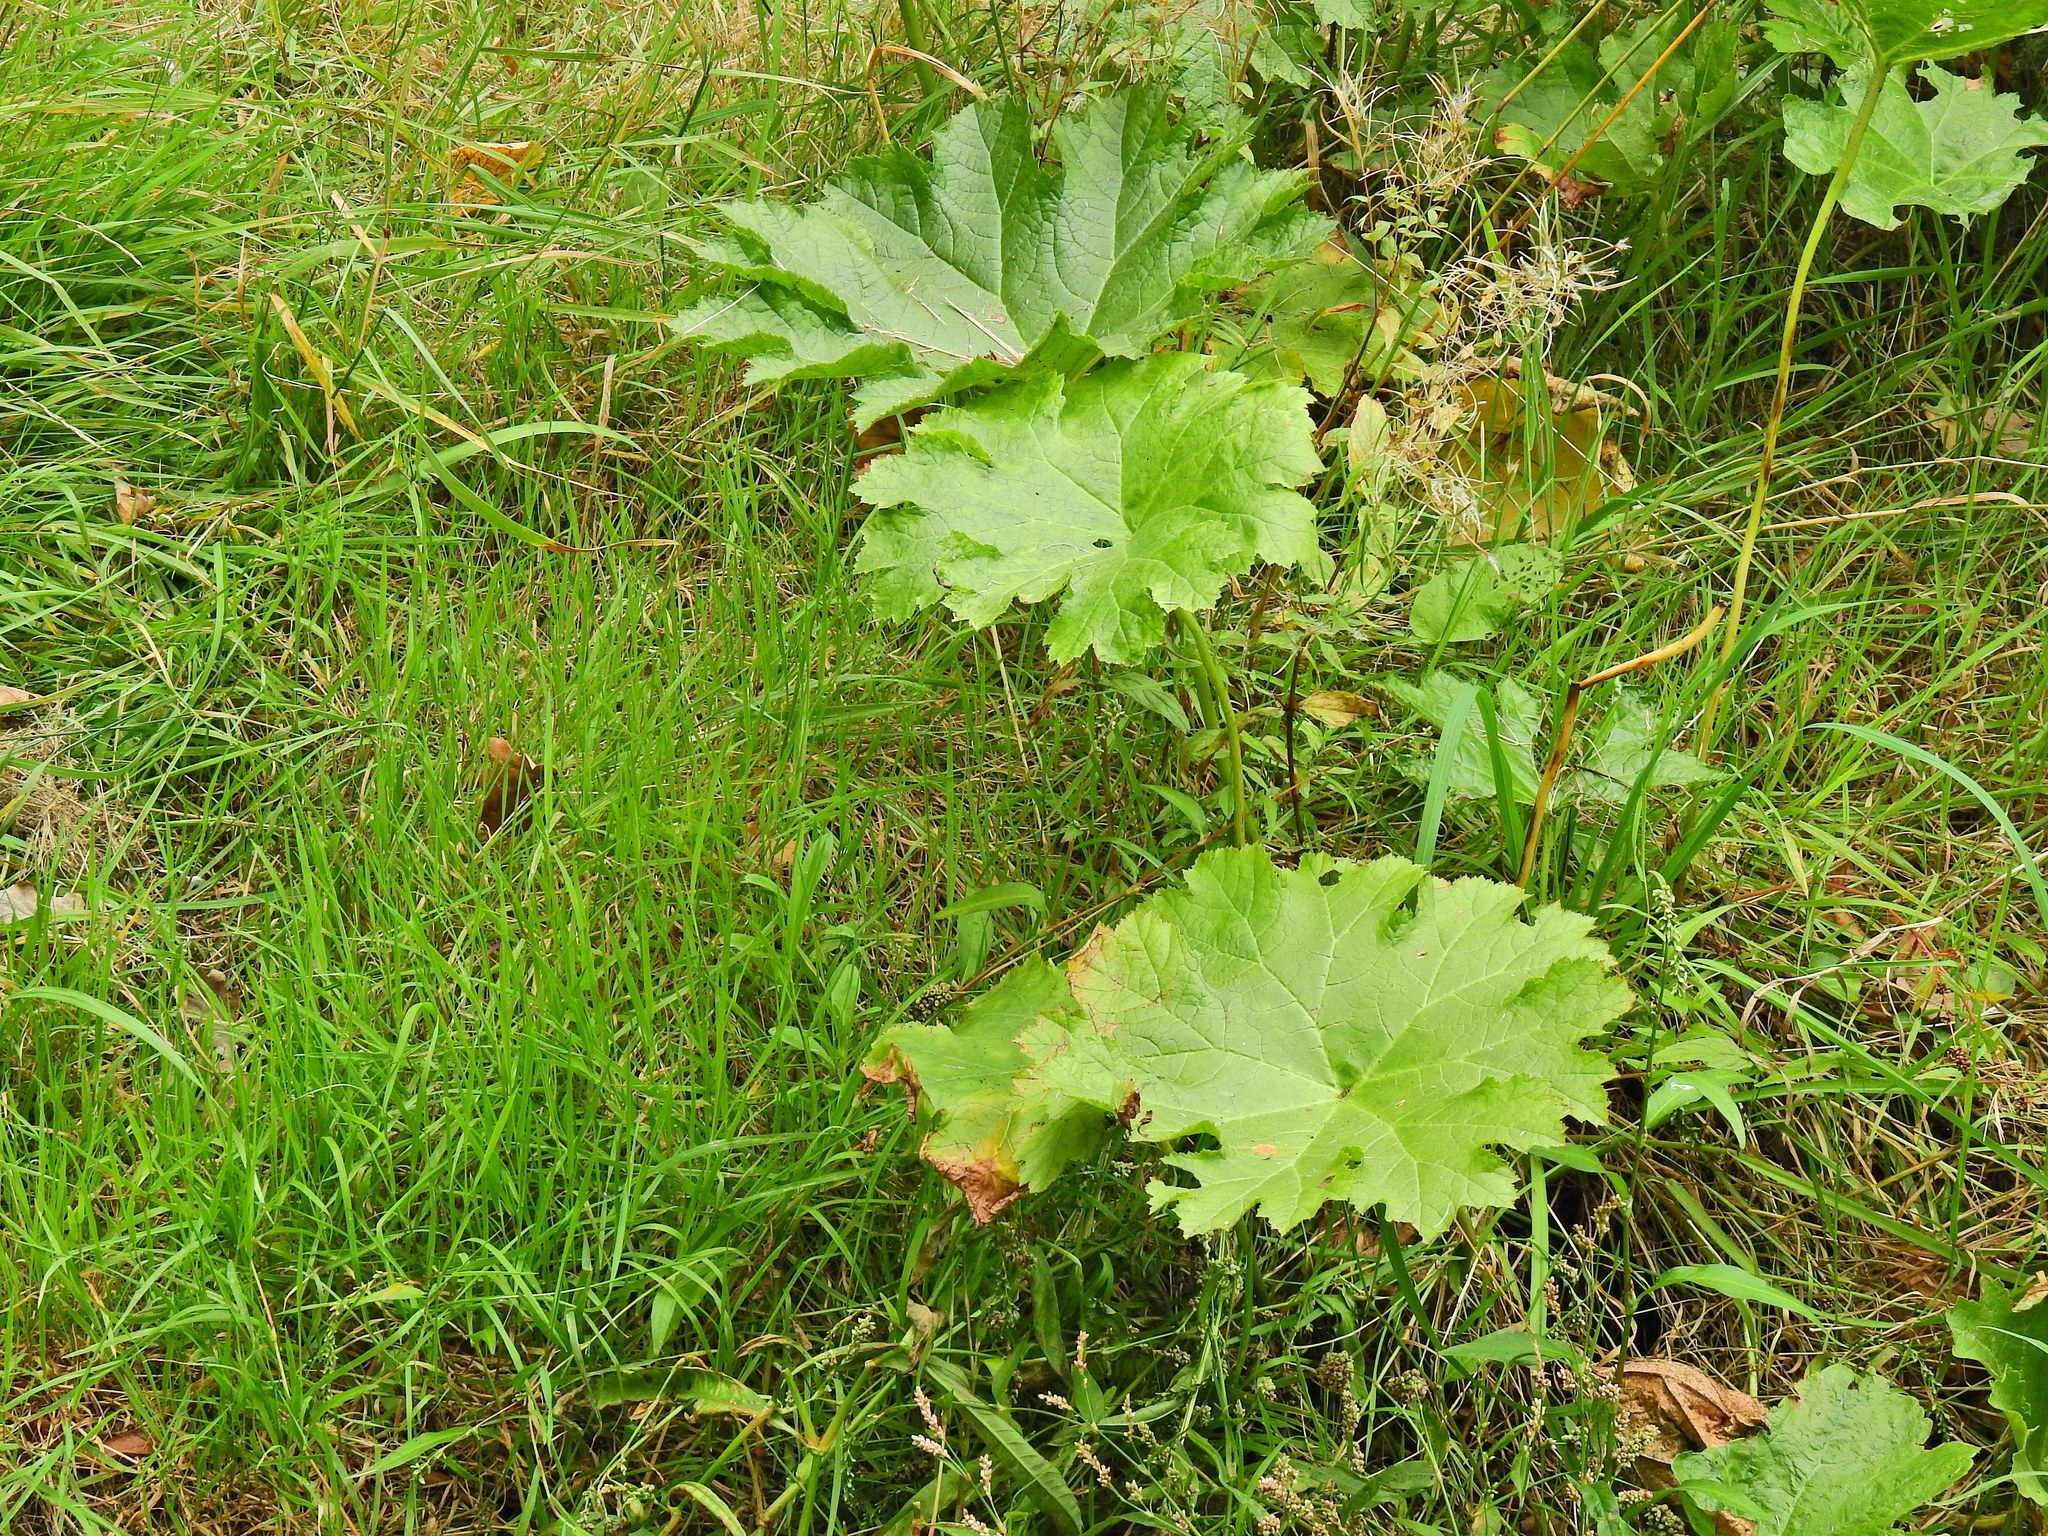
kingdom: Plantae
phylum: Tracheophyta
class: Magnoliopsida
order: Saxifragales
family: Saxifragaceae
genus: Darmera
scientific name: Darmera peltata
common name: Indian-rhubarb
